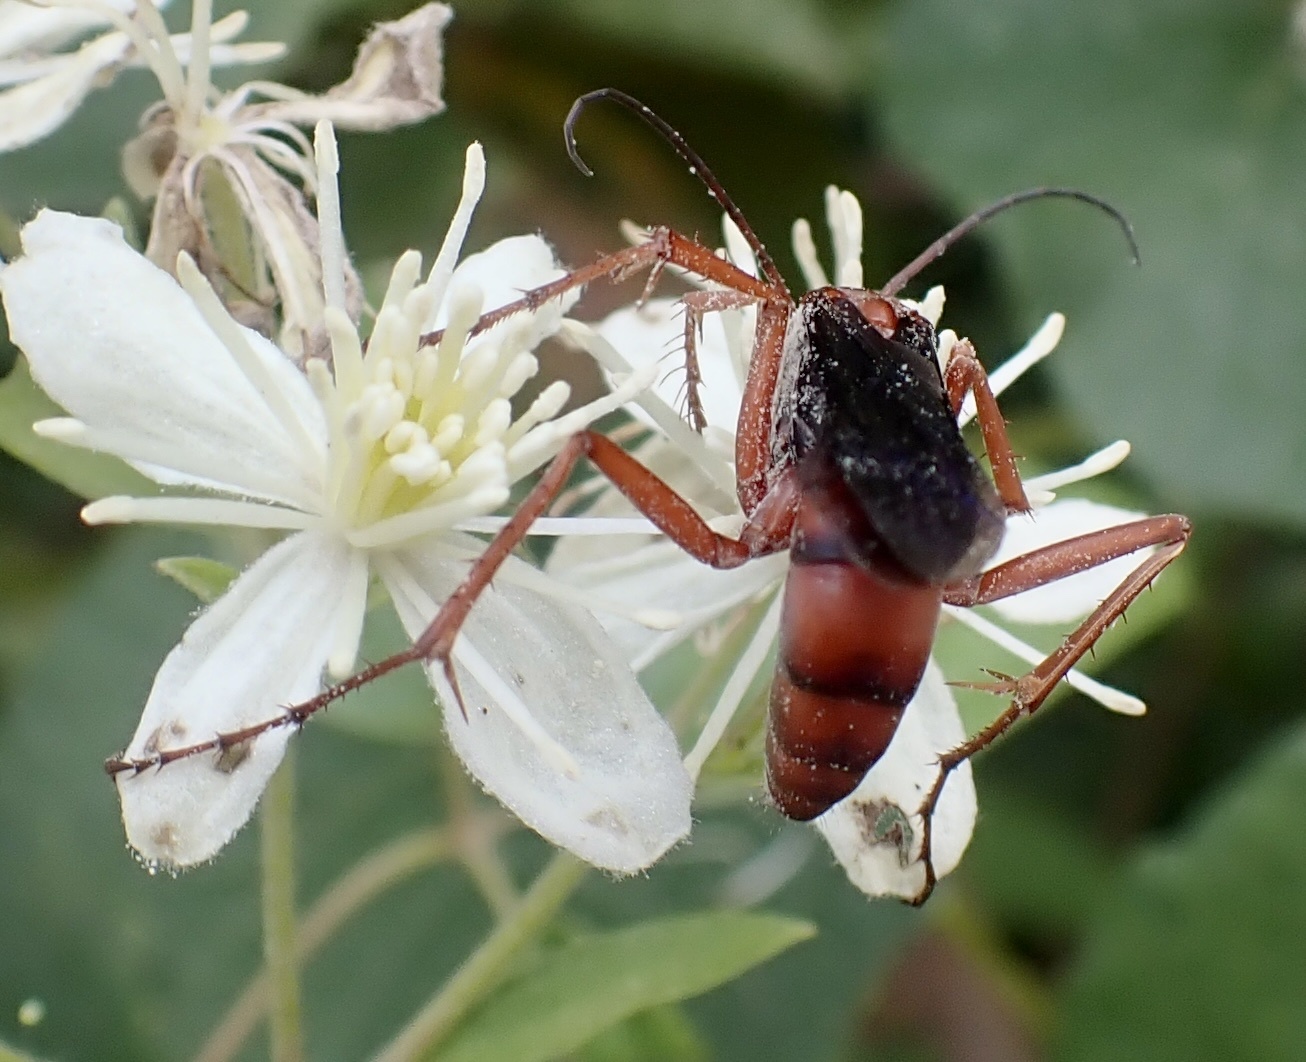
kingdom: Animalia
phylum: Arthropoda
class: Insecta
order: Hymenoptera
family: Pompilidae
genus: Tachypompilus
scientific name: Tachypompilus ferrugineus
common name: Rusty spider wasp
